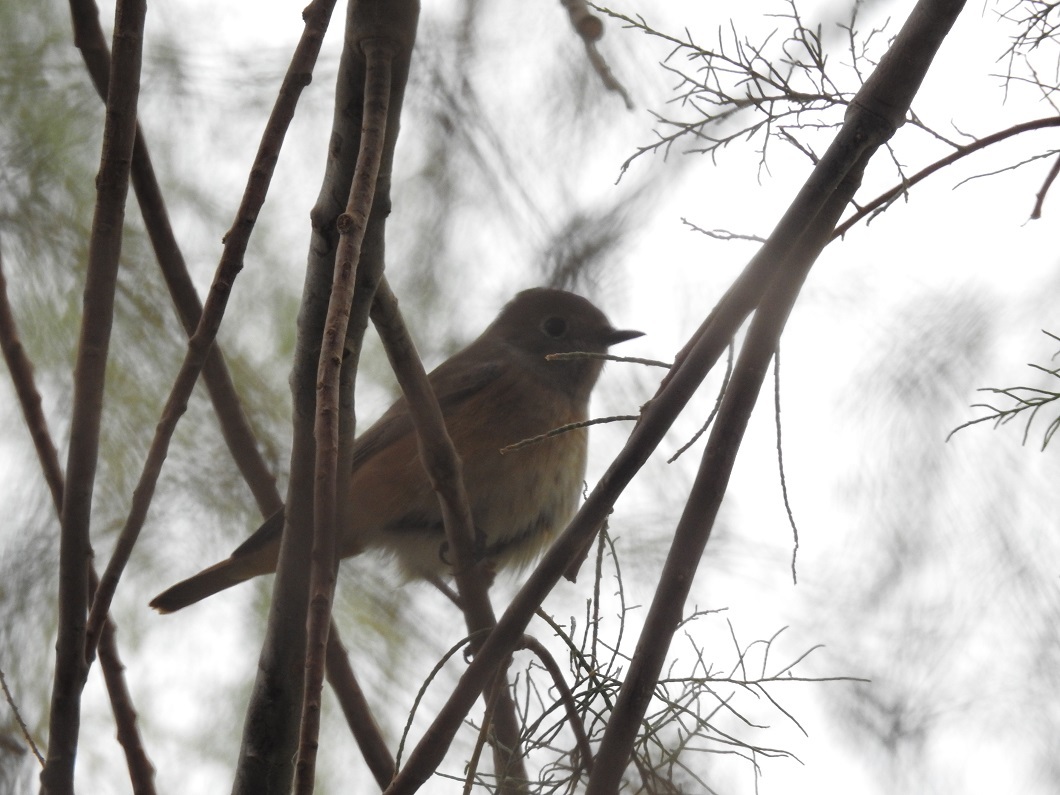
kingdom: Animalia
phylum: Chordata
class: Aves
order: Passeriformes
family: Muscicapidae
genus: Phoenicurus
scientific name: Phoenicurus phoenicurus
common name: Common redstart
